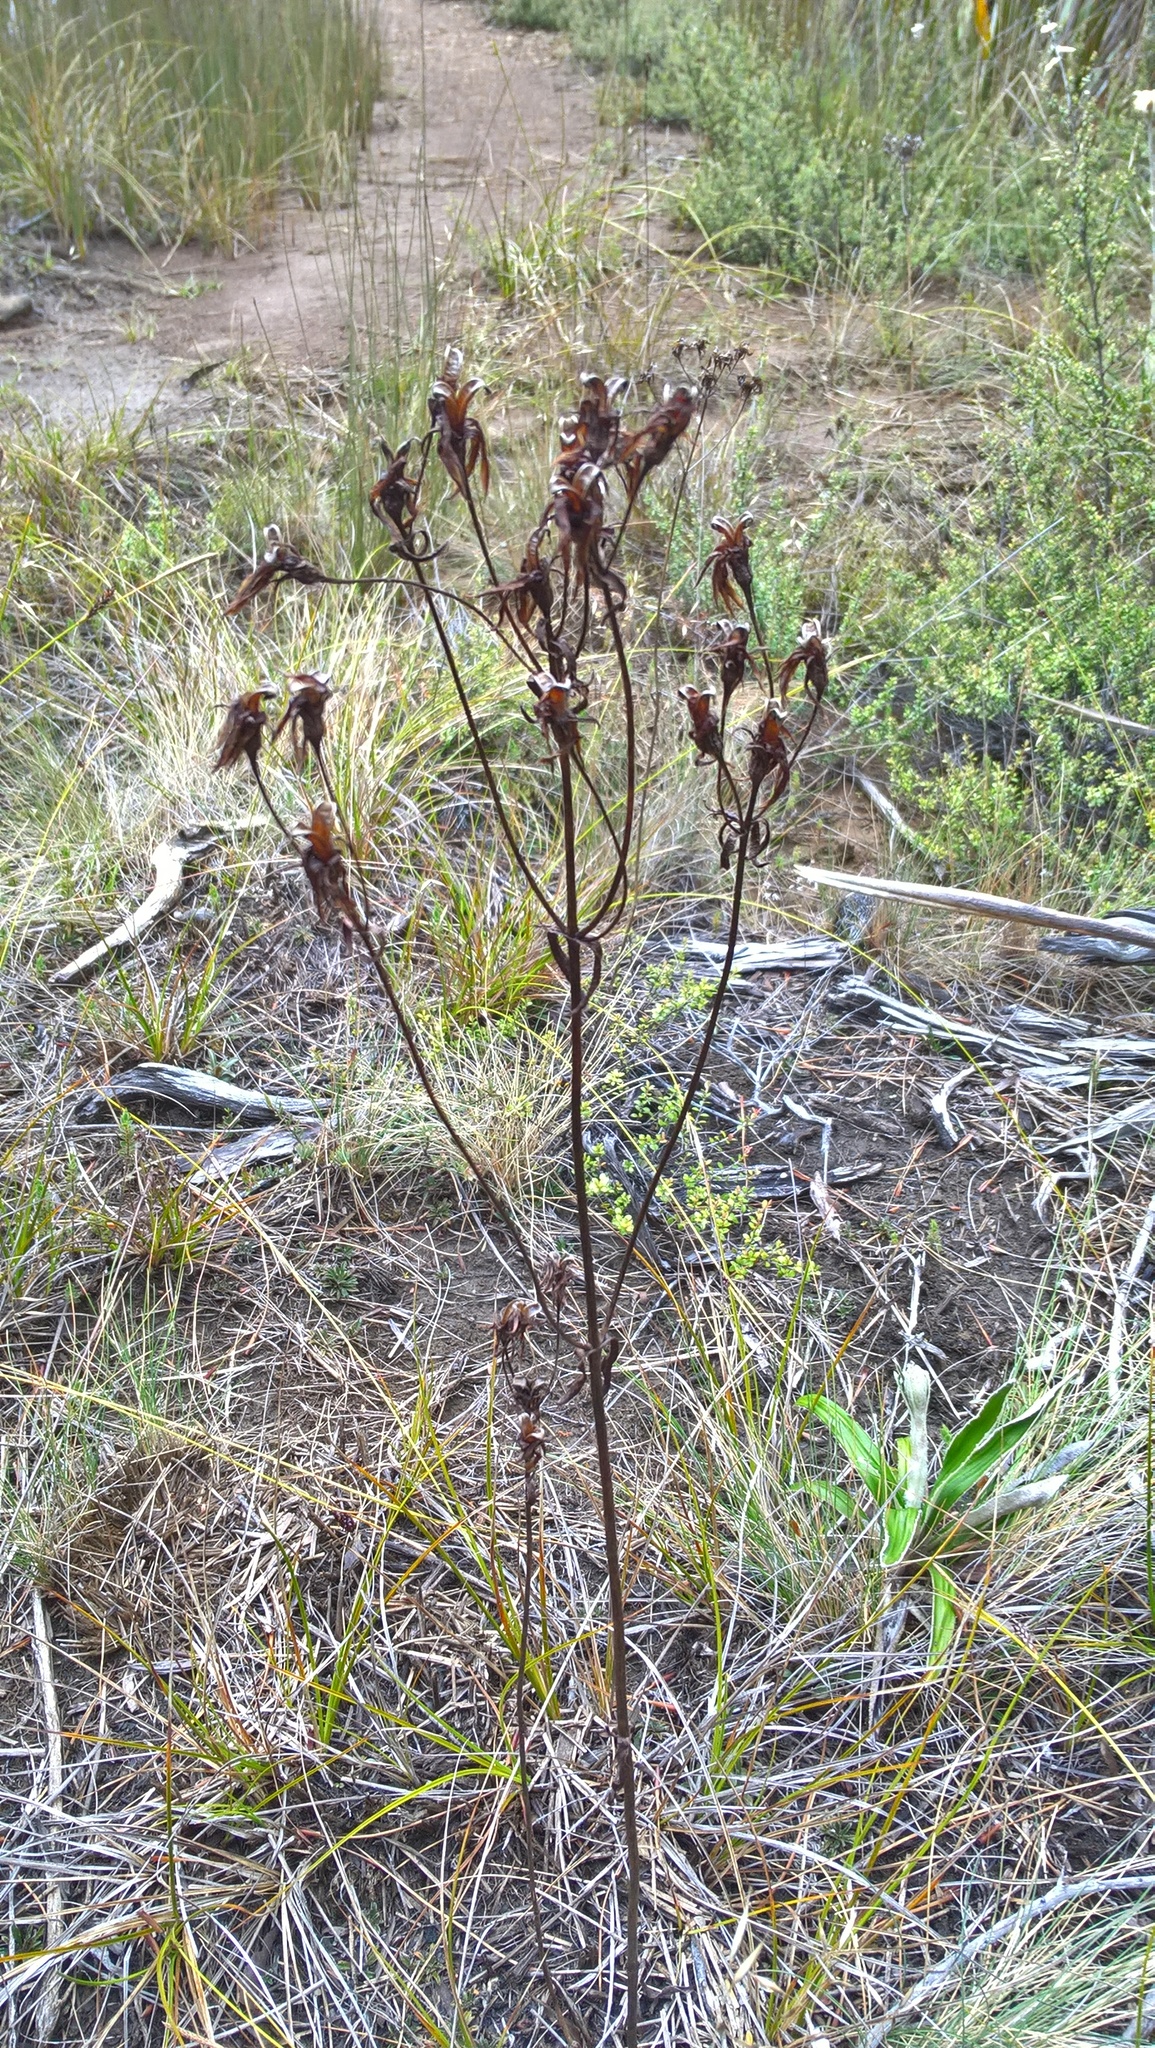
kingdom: Plantae
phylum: Tracheophyta
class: Magnoliopsida
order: Gentianales
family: Gentianaceae
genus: Gentianella
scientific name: Gentianella stellata
